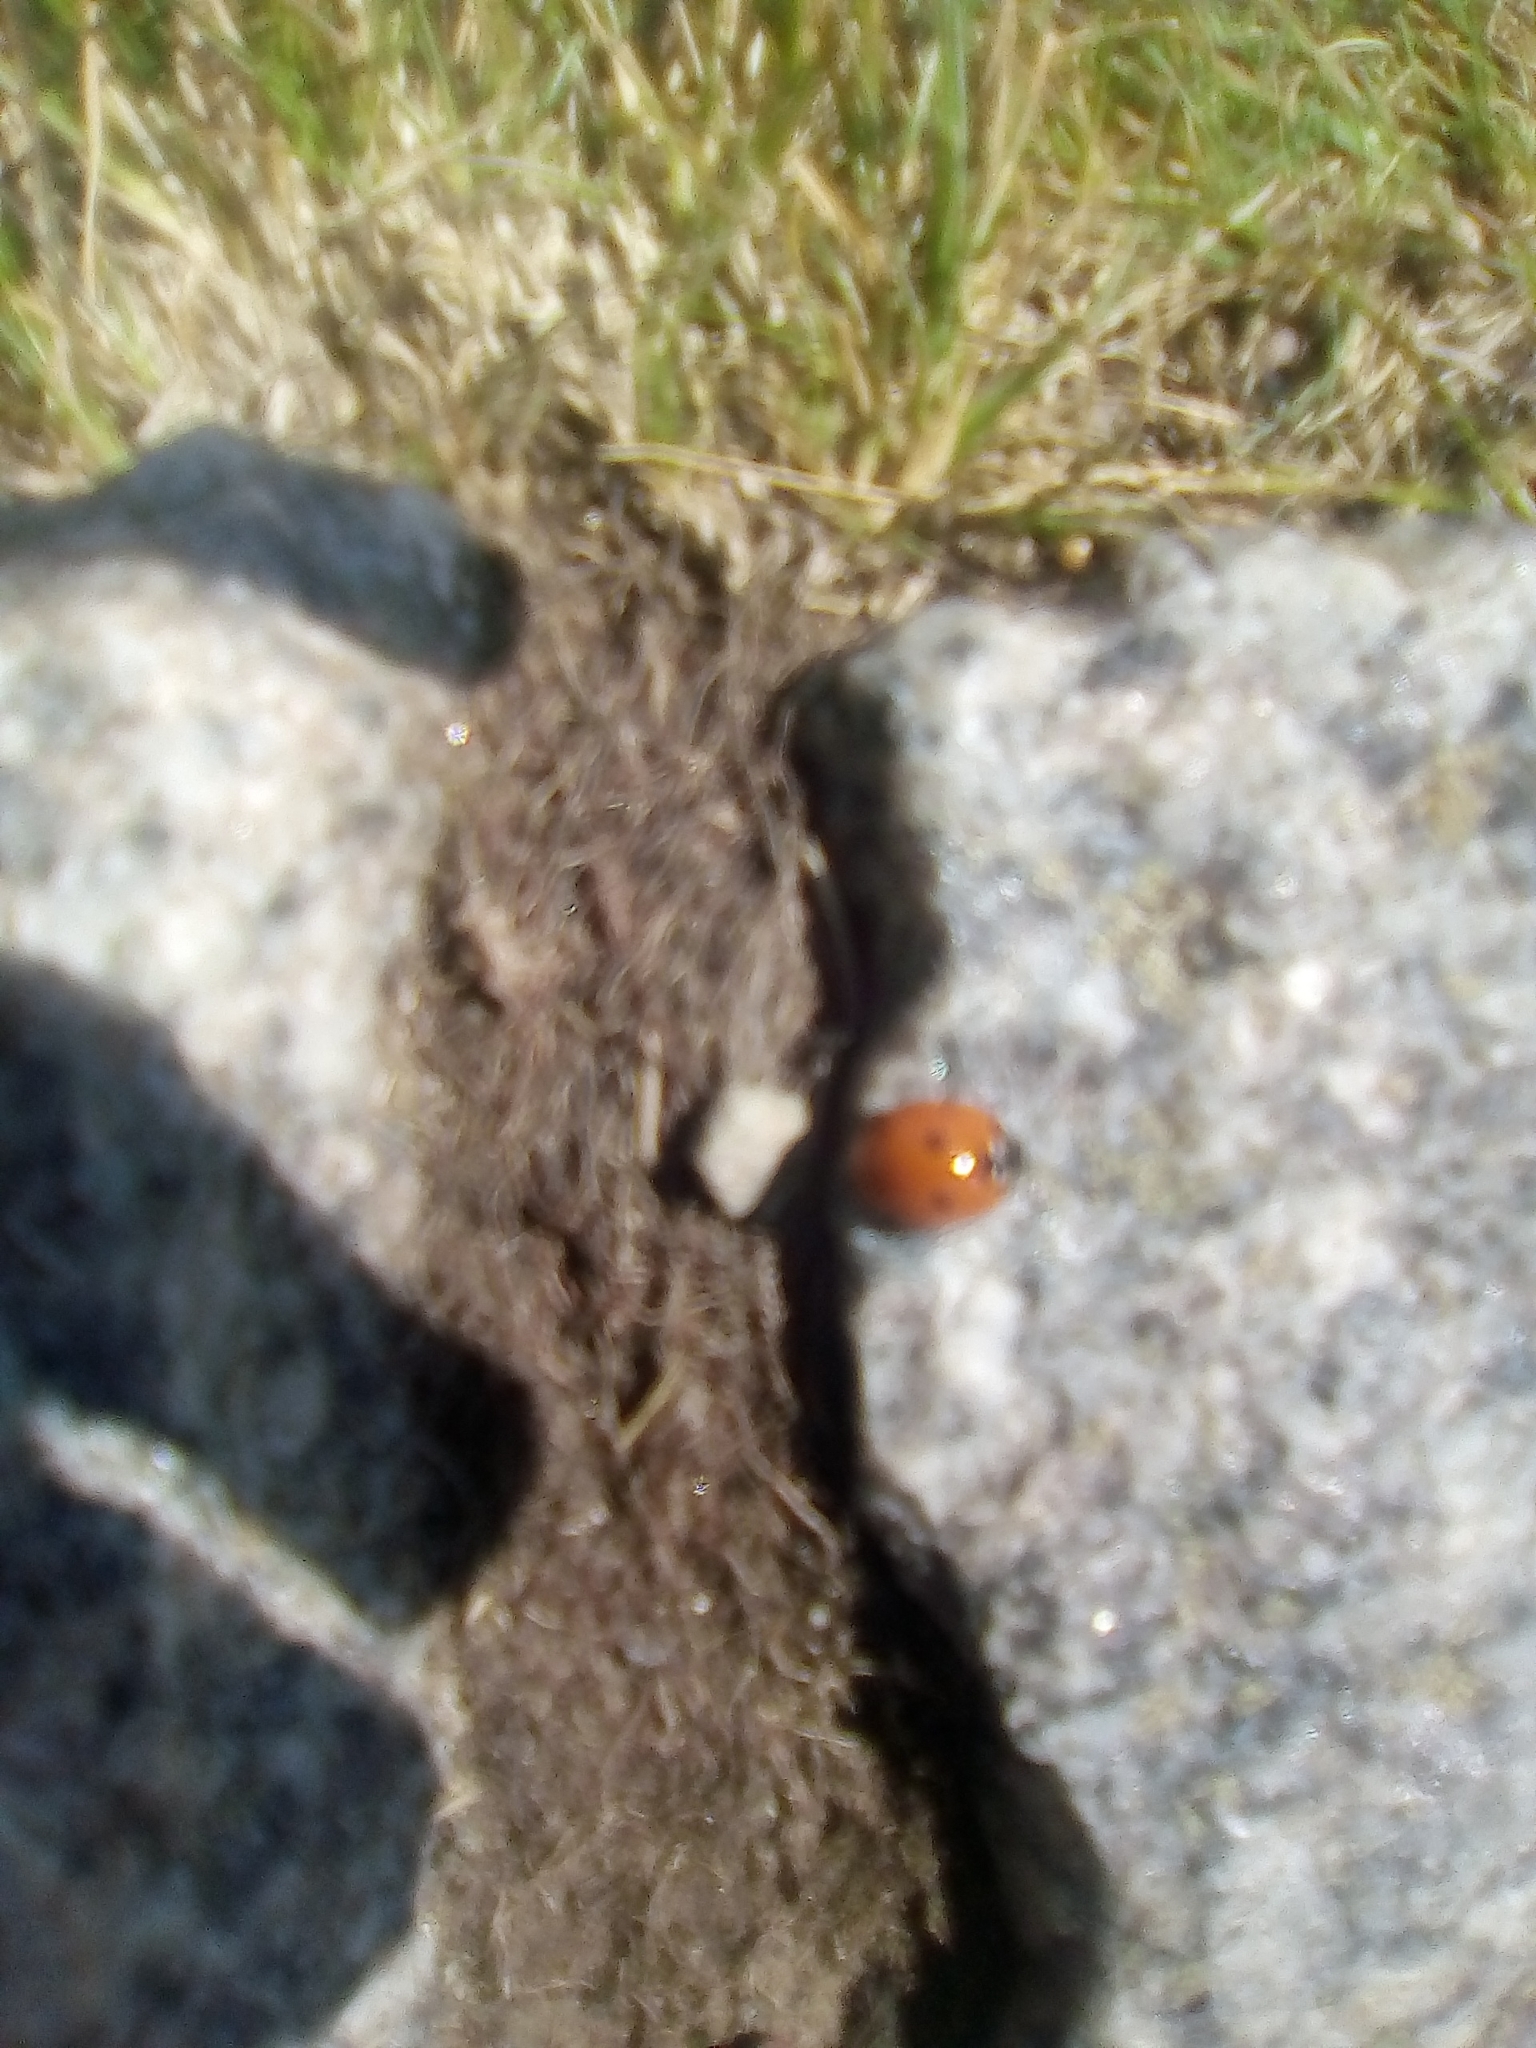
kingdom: Animalia
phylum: Arthropoda
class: Insecta
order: Coleoptera
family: Coccinellidae
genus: Coccinella
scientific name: Coccinella septempunctata
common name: Sevenspotted lady beetle
